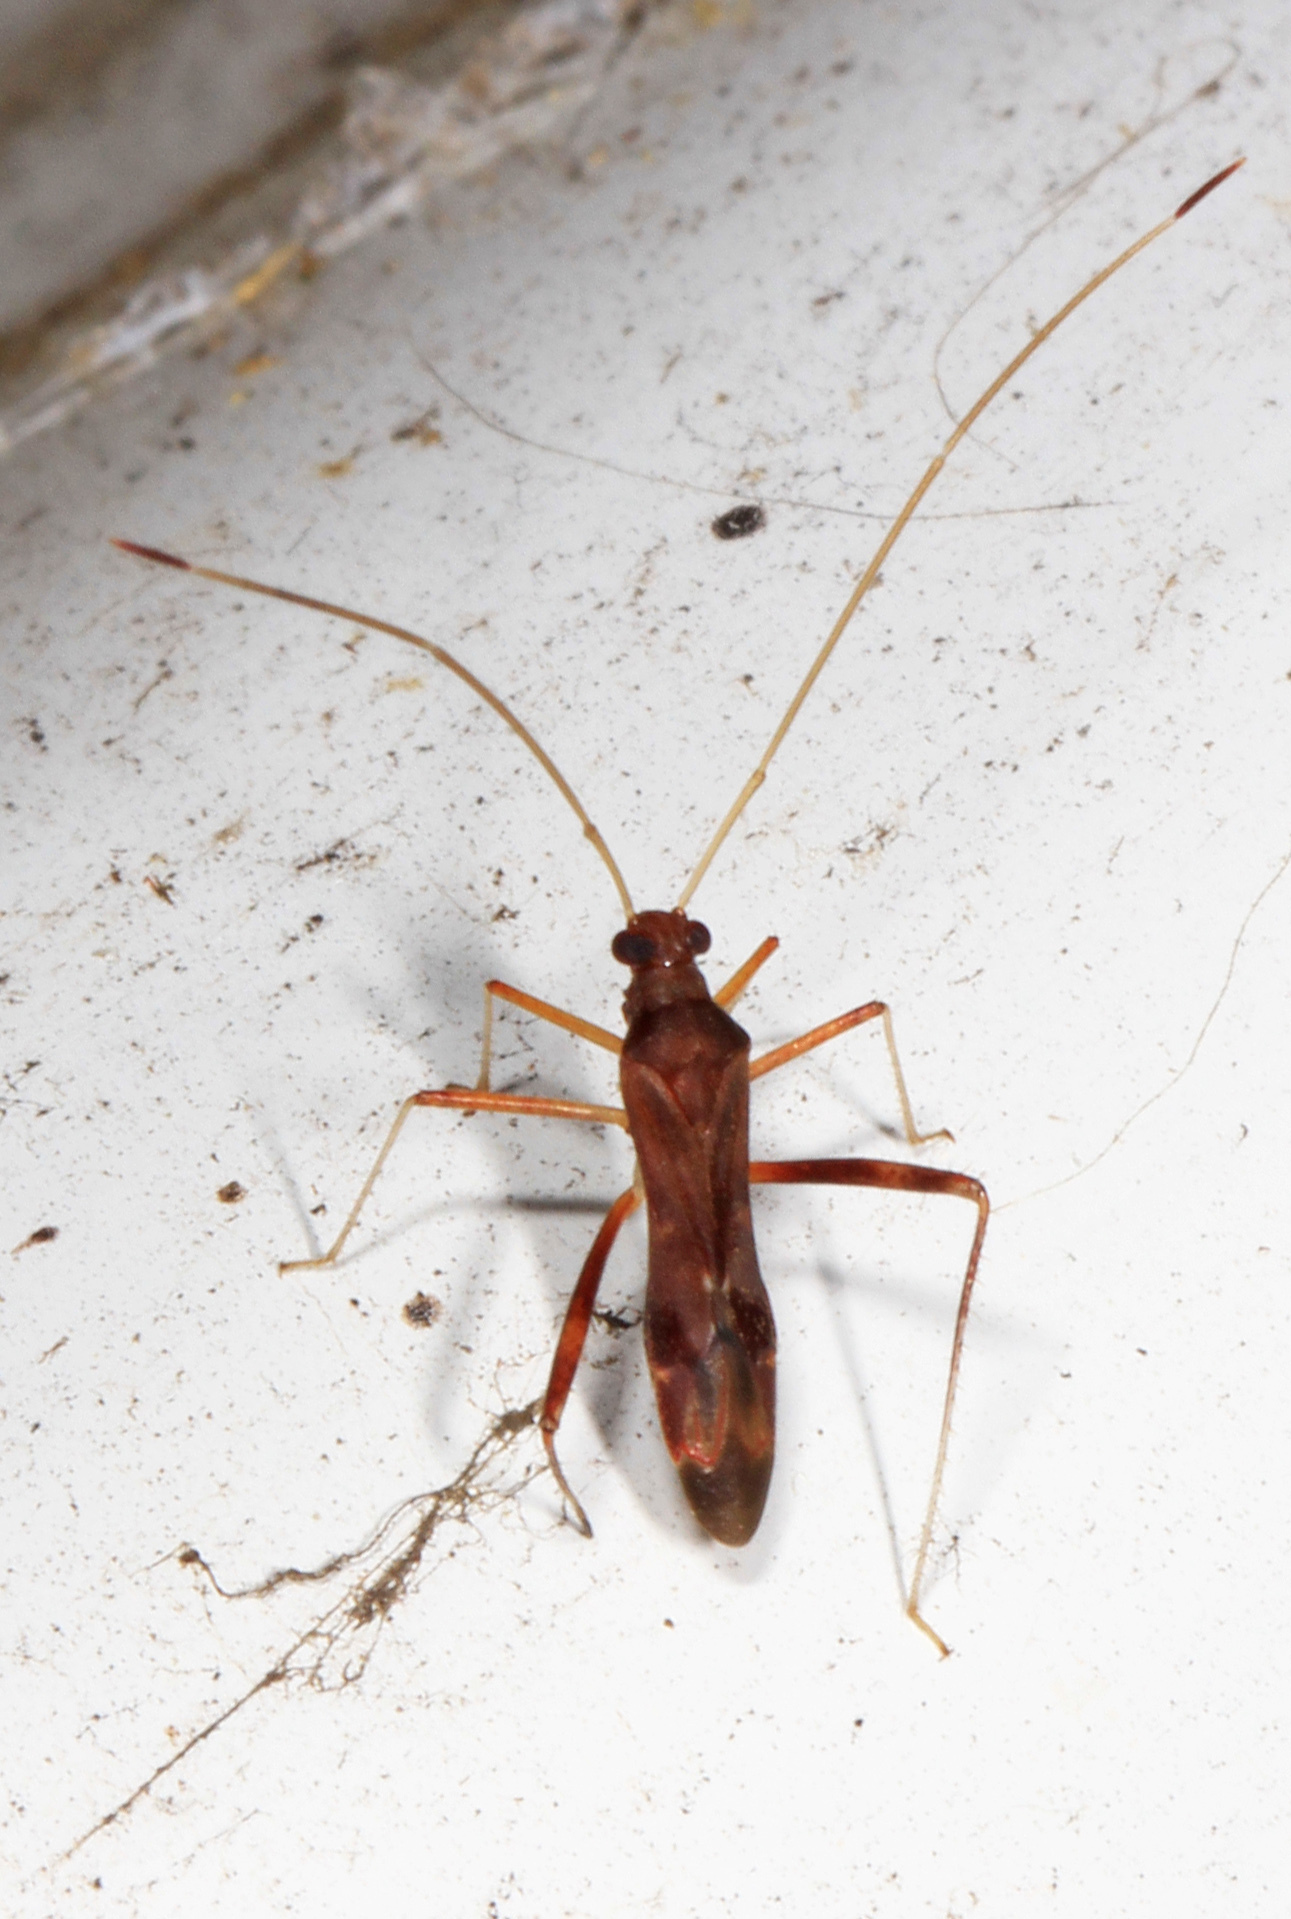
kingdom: Animalia
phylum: Arthropoda
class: Insecta
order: Hemiptera
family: Miridae
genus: Paraxenetus
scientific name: Paraxenetus guttulatus
